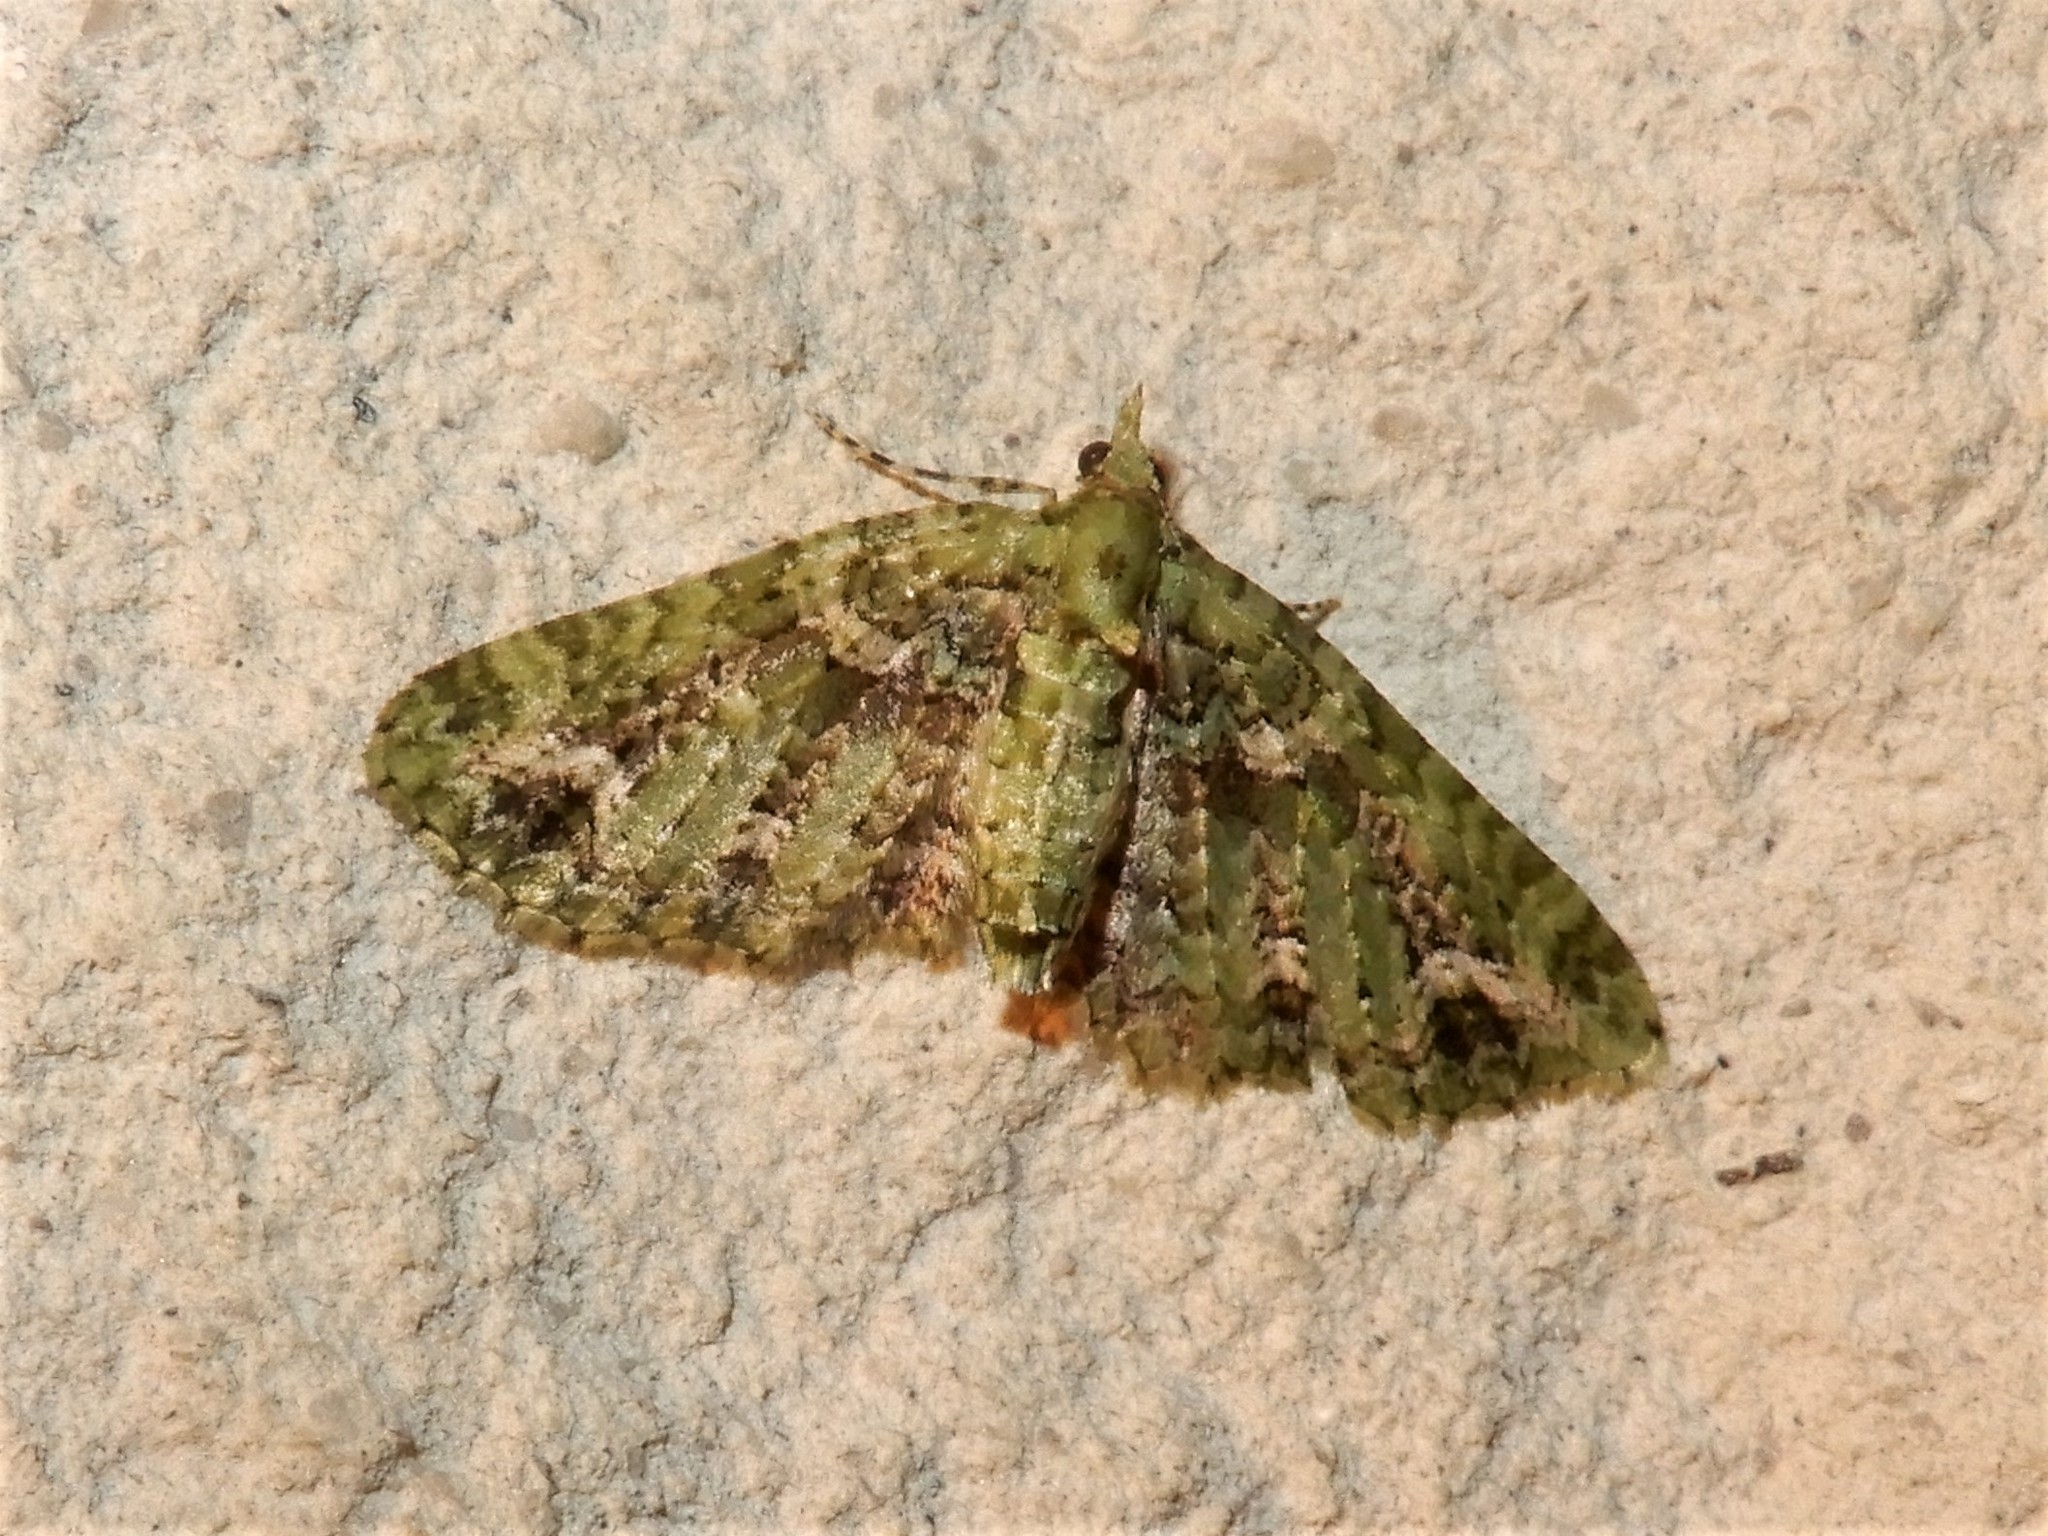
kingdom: Animalia
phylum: Arthropoda
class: Insecta
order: Lepidoptera
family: Geometridae
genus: Pasiphila
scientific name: Pasiphila muscosata
